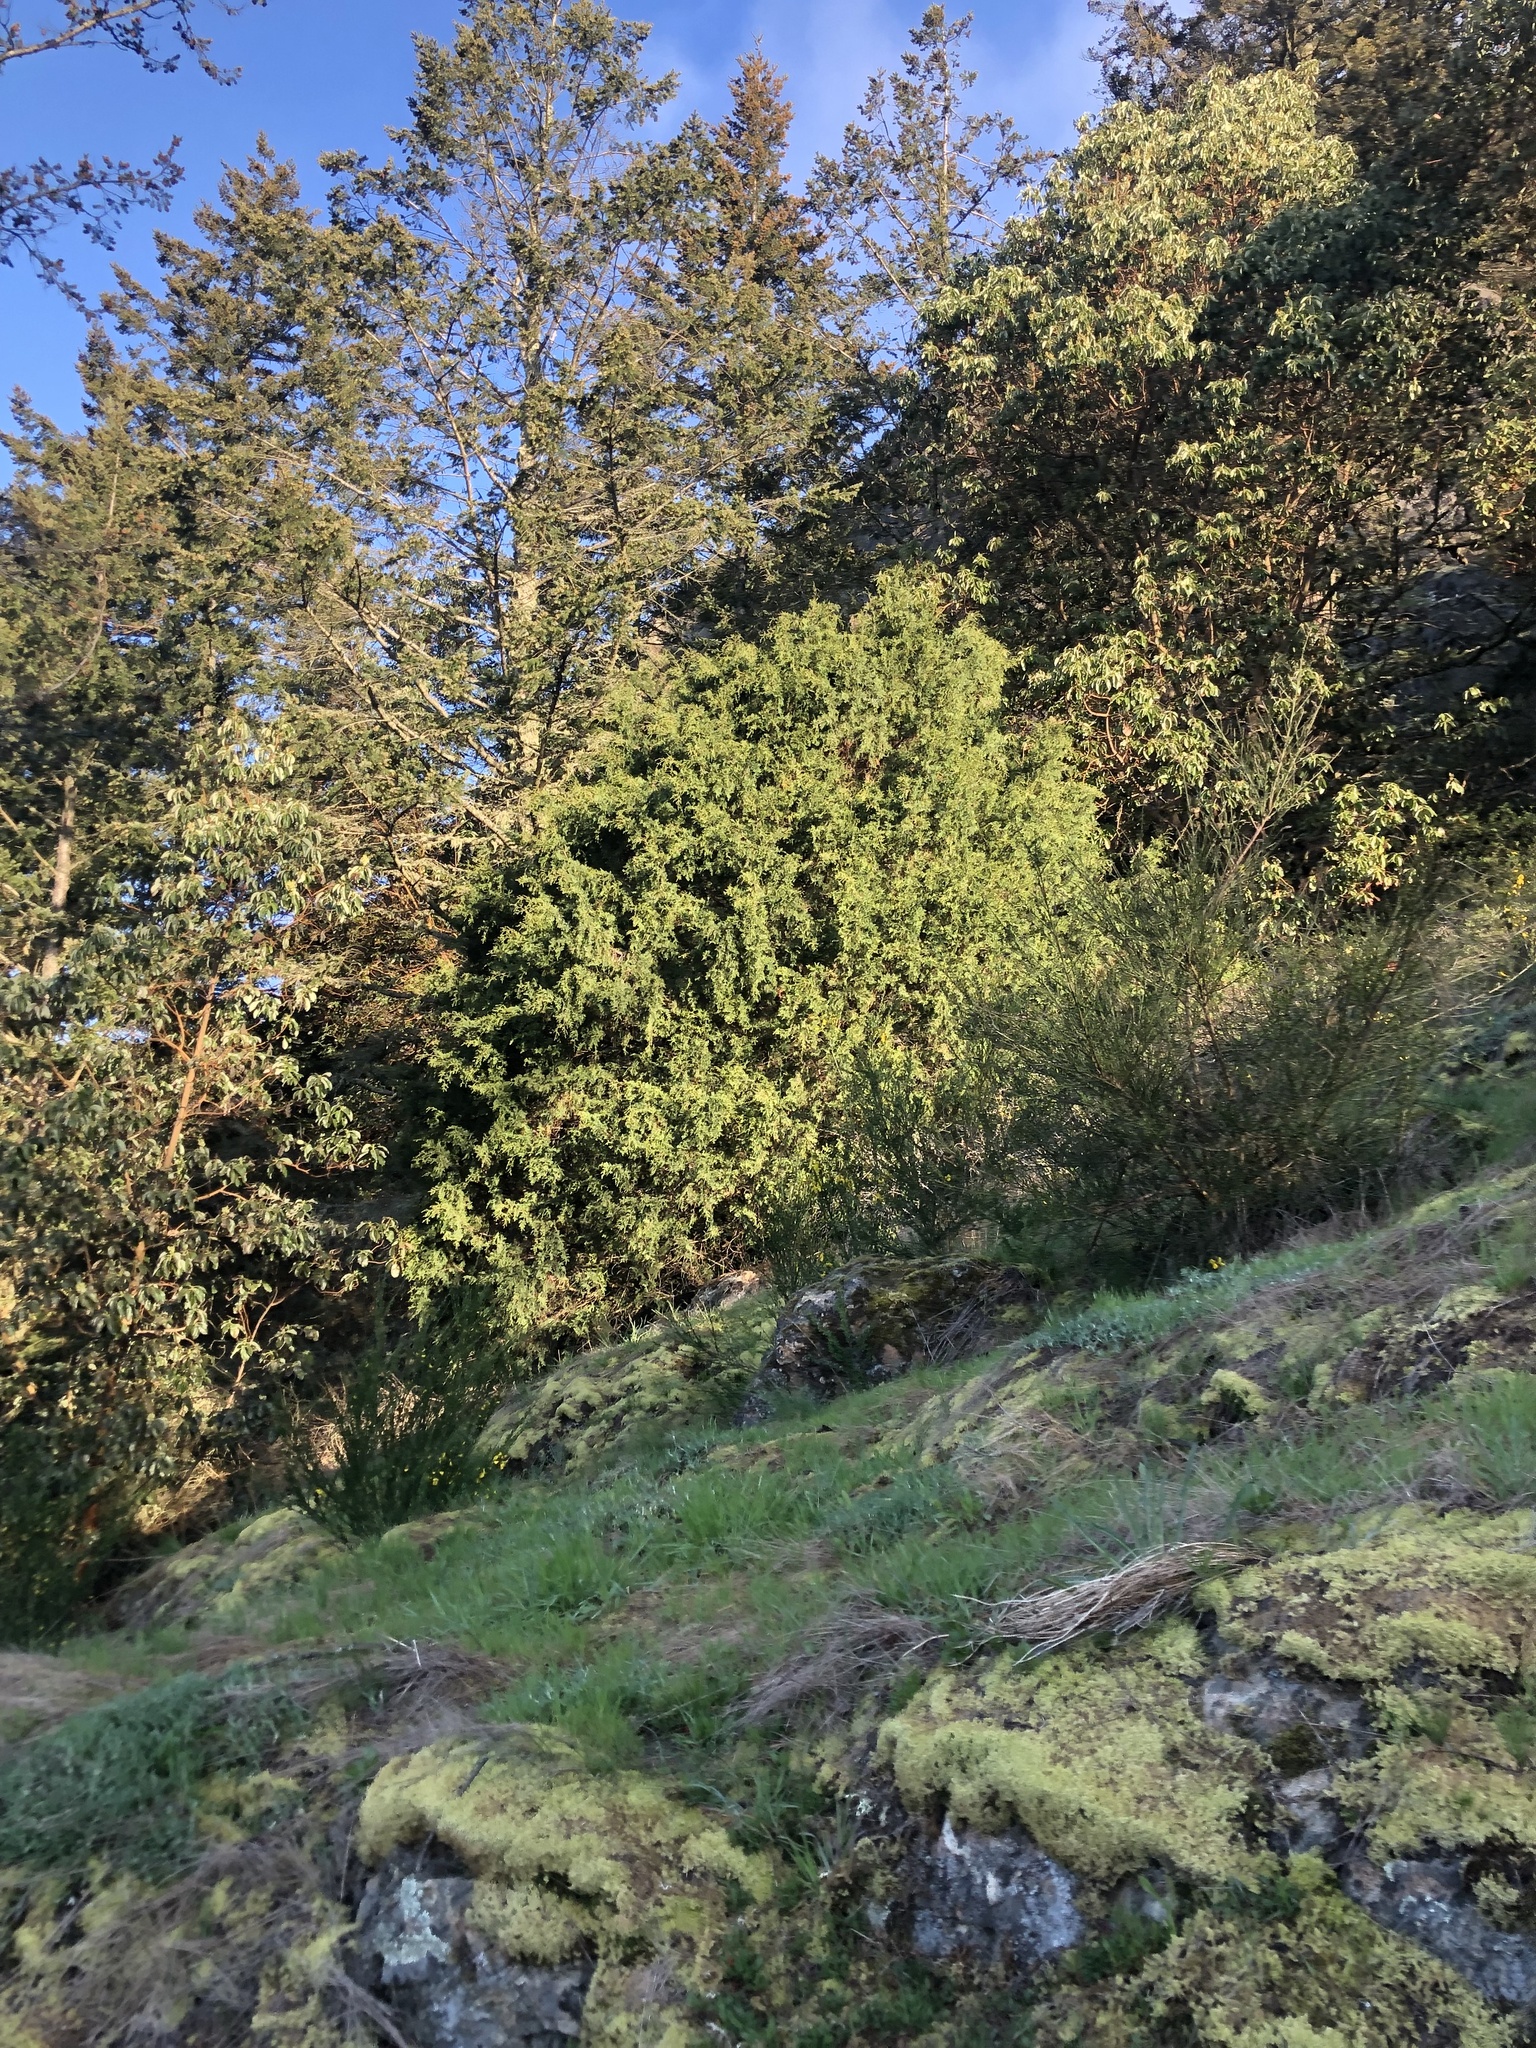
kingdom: Plantae
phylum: Tracheophyta
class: Pinopsida
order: Pinales
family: Cupressaceae
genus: Juniperus
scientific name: Juniperus scopulorum
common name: Rocky mountain juniper
